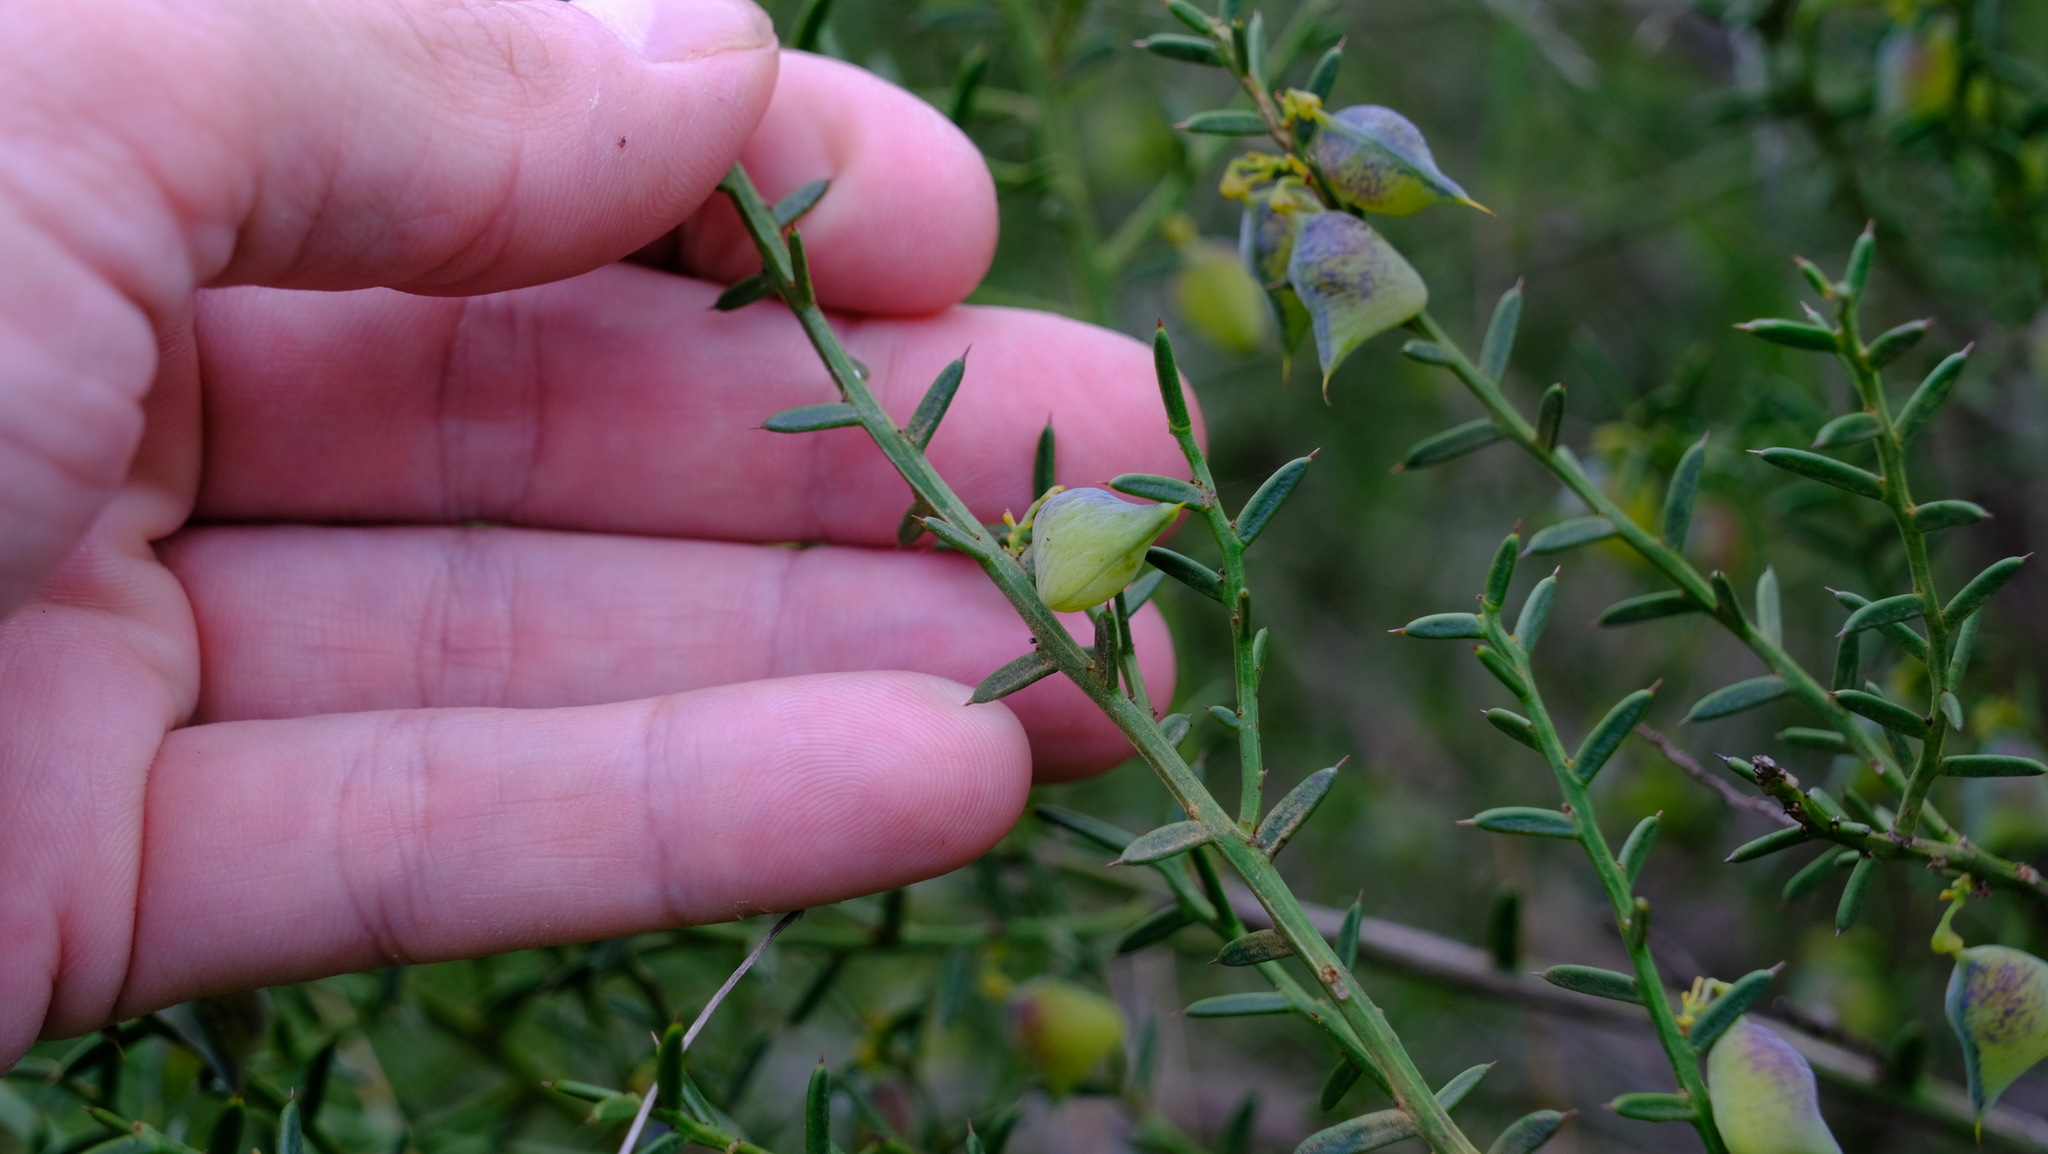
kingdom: Plantae
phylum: Tracheophyta
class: Magnoliopsida
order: Fabales
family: Fabaceae
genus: Daviesia
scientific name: Daviesia angulata
